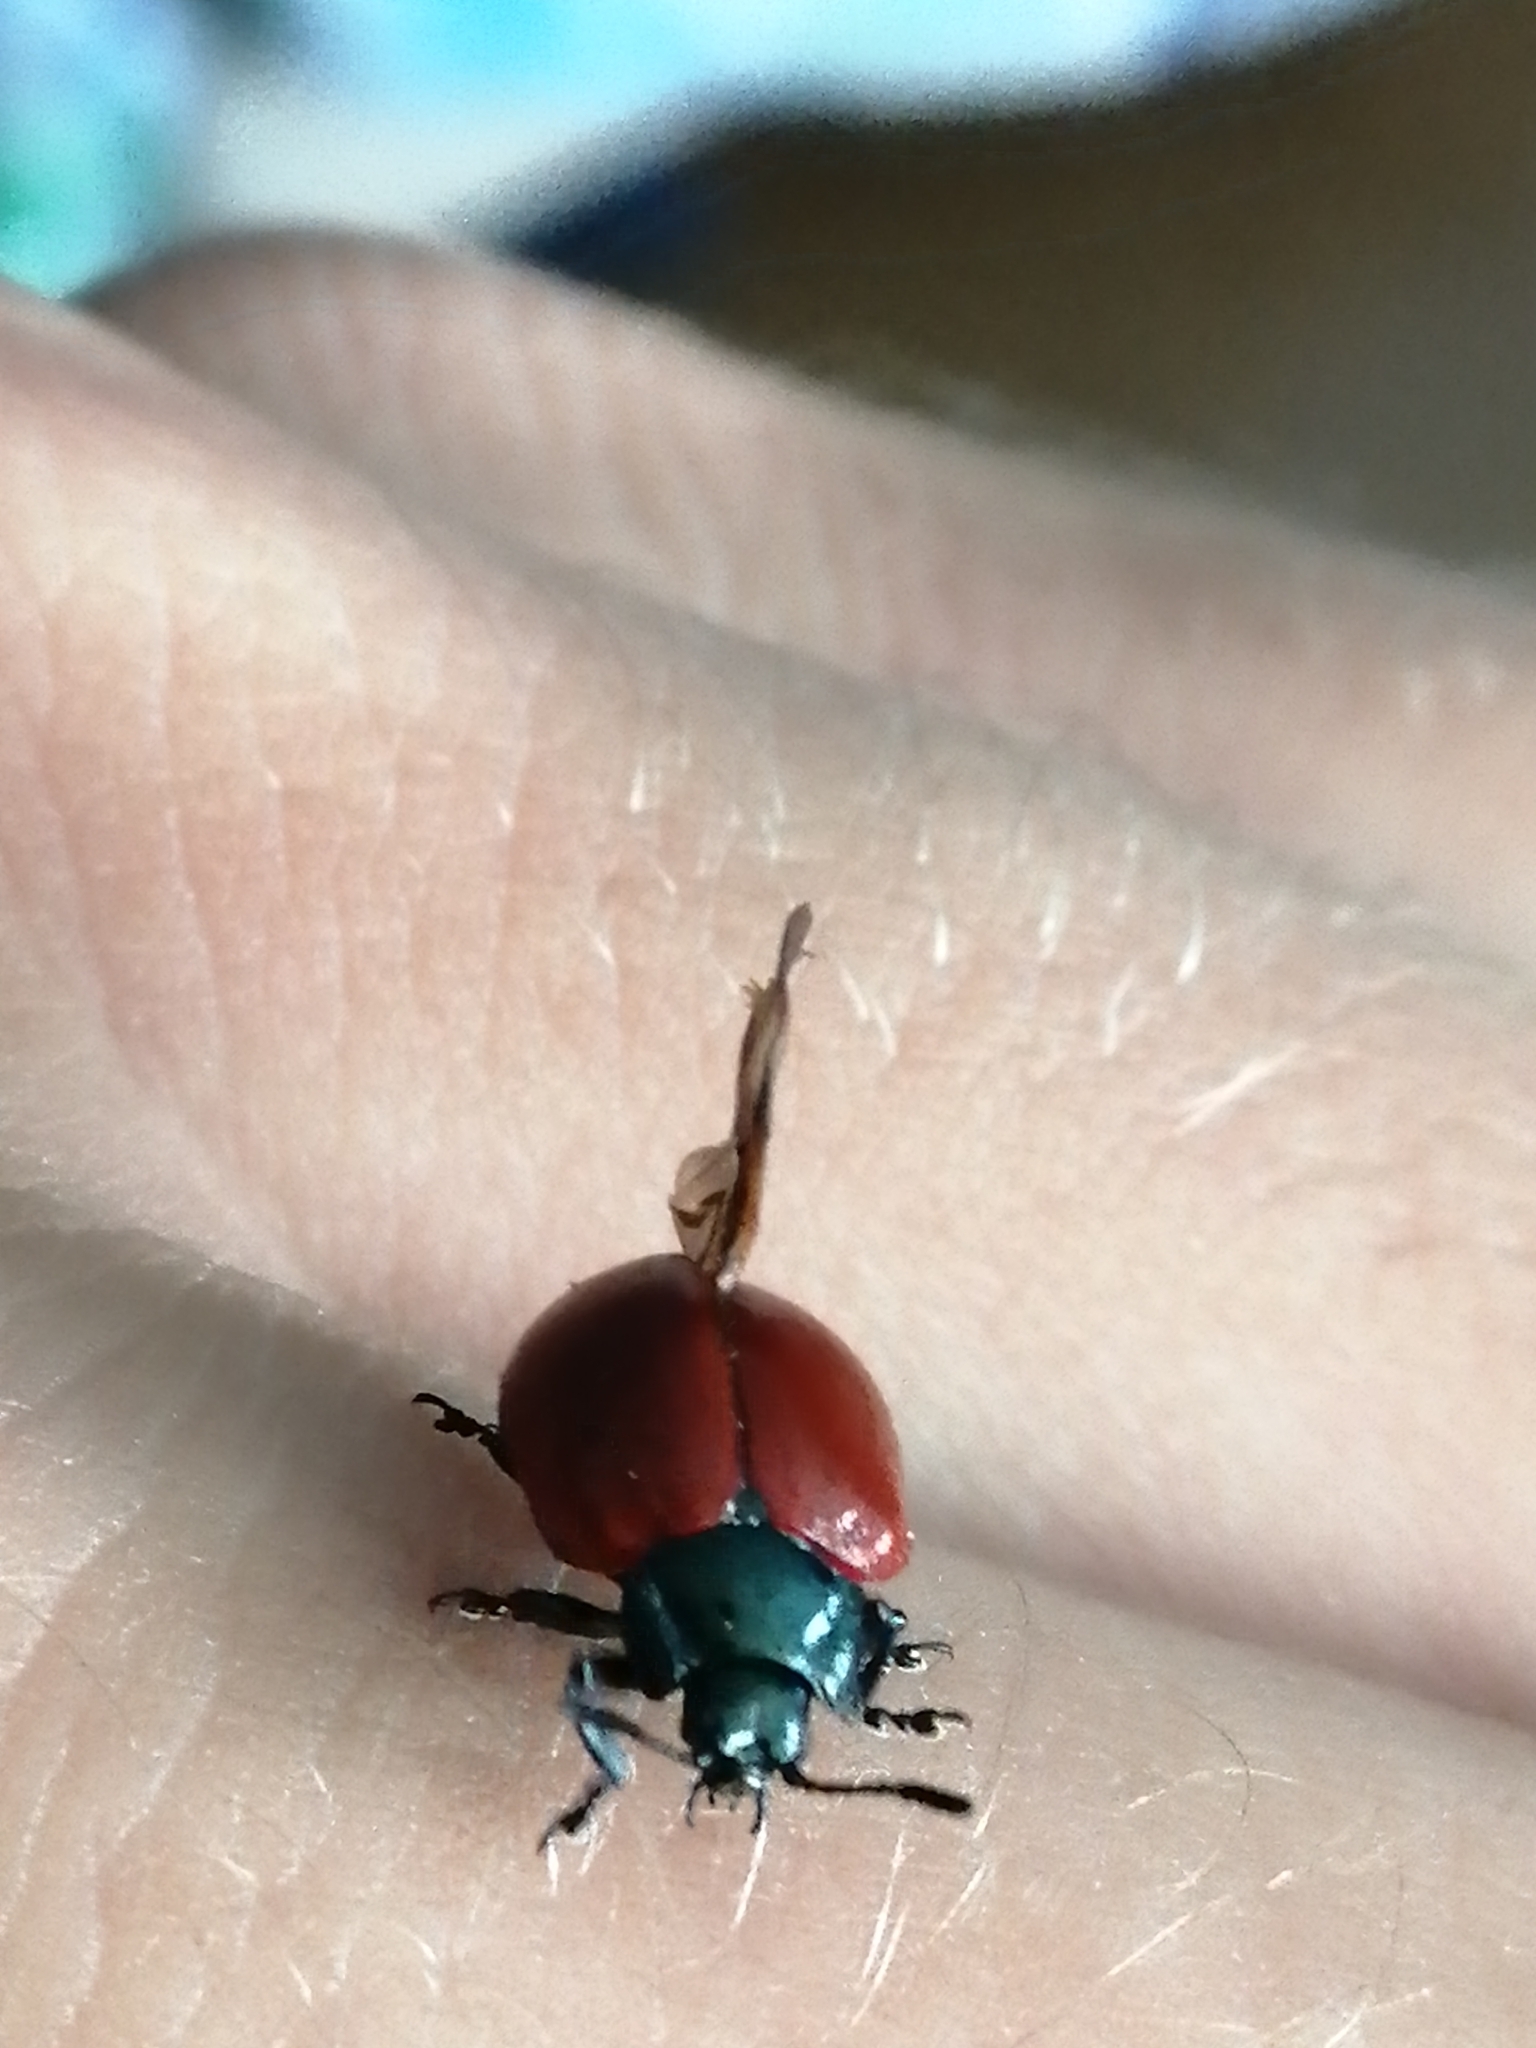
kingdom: Animalia
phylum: Arthropoda
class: Insecta
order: Coleoptera
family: Chrysomelidae
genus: Chrysomela
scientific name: Chrysomela populi
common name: Red poplar leaf beetle
